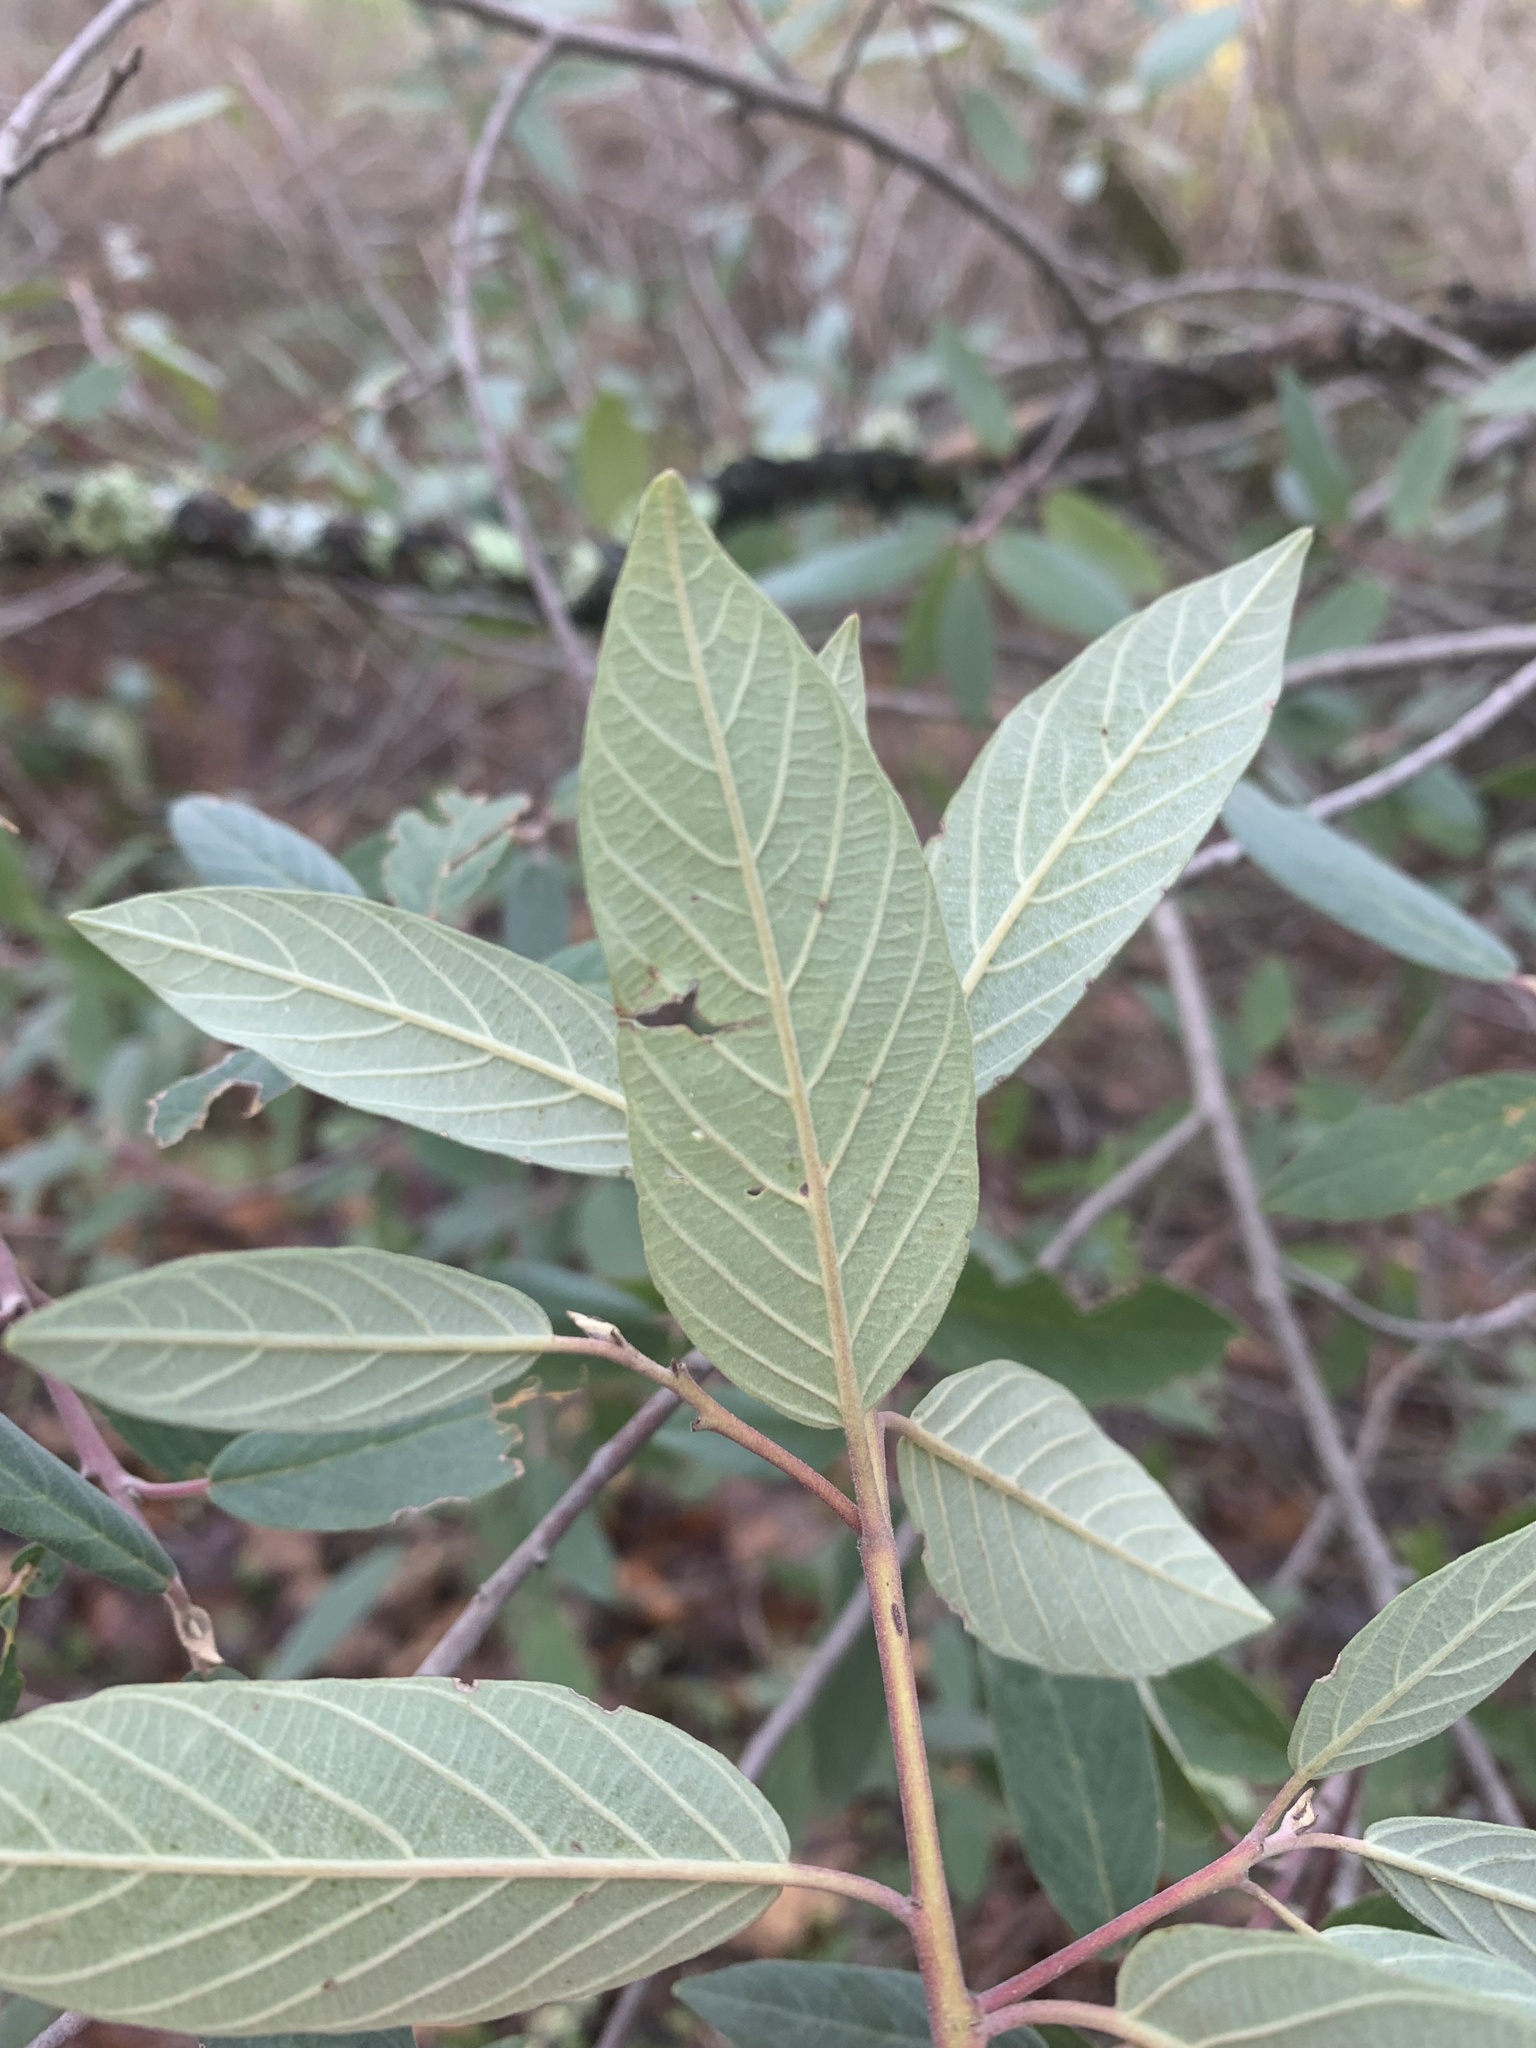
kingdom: Plantae
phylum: Tracheophyta
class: Magnoliopsida
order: Rosales
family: Rhamnaceae
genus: Frangula
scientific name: Frangula californica
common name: California buckthorn
